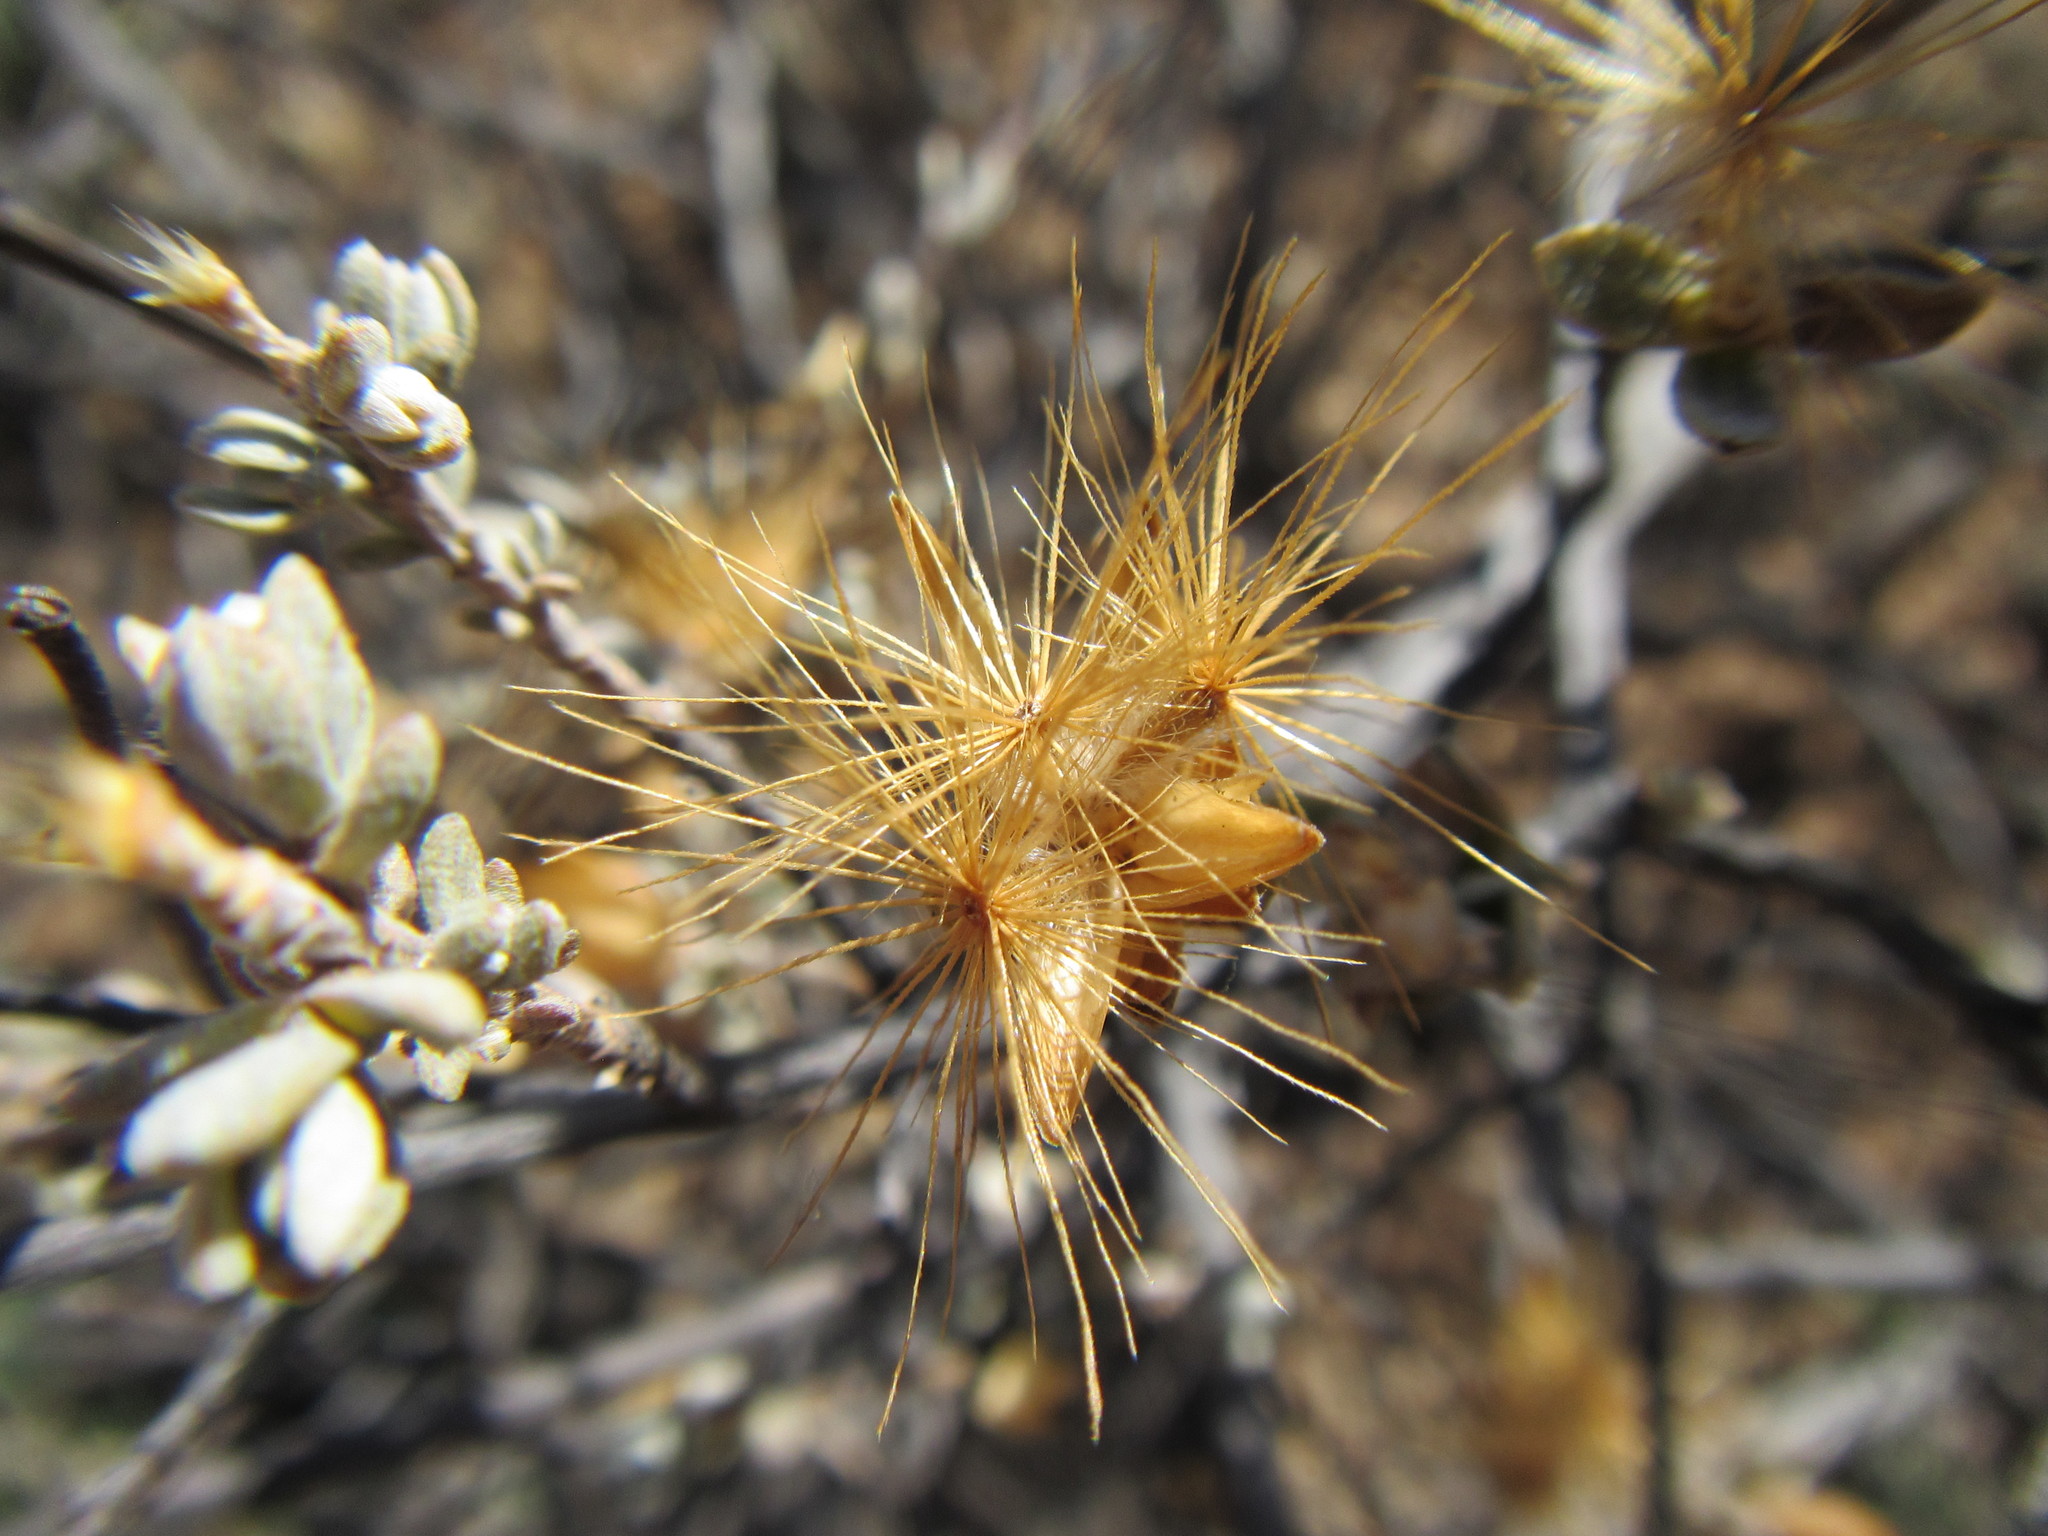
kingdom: Plantae
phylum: Tracheophyta
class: Magnoliopsida
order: Asterales
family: Asteraceae
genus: Pteronia
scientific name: Pteronia glauca
